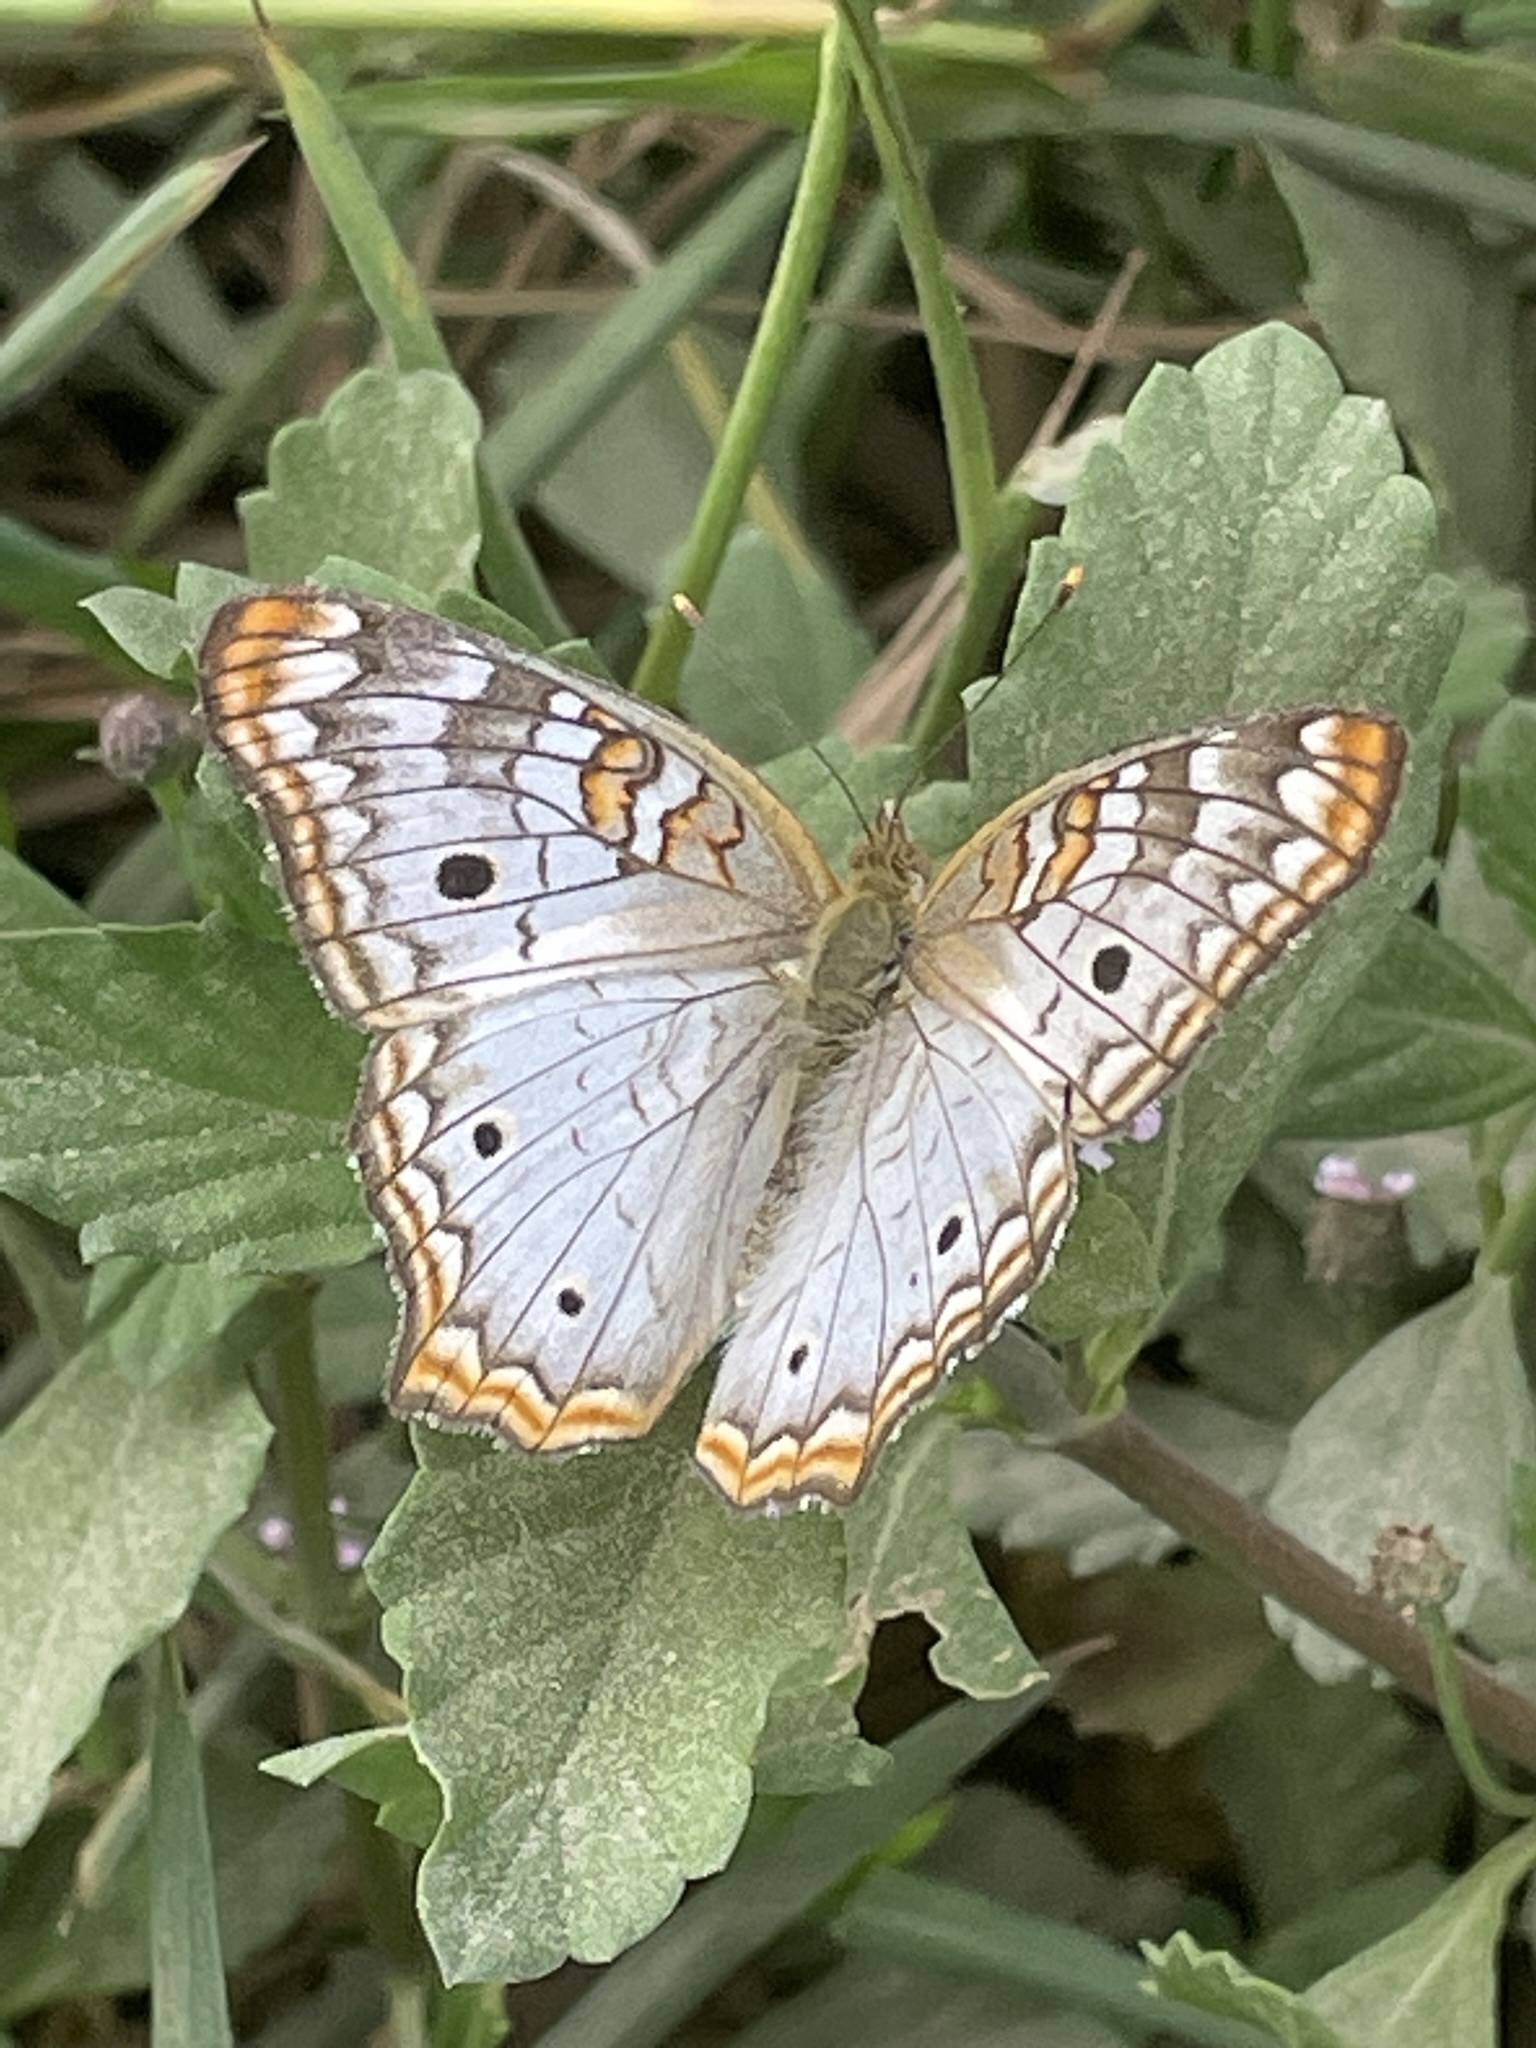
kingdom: Animalia
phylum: Arthropoda
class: Insecta
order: Lepidoptera
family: Nymphalidae
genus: Anartia
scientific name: Anartia jatrophae
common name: White peacock
